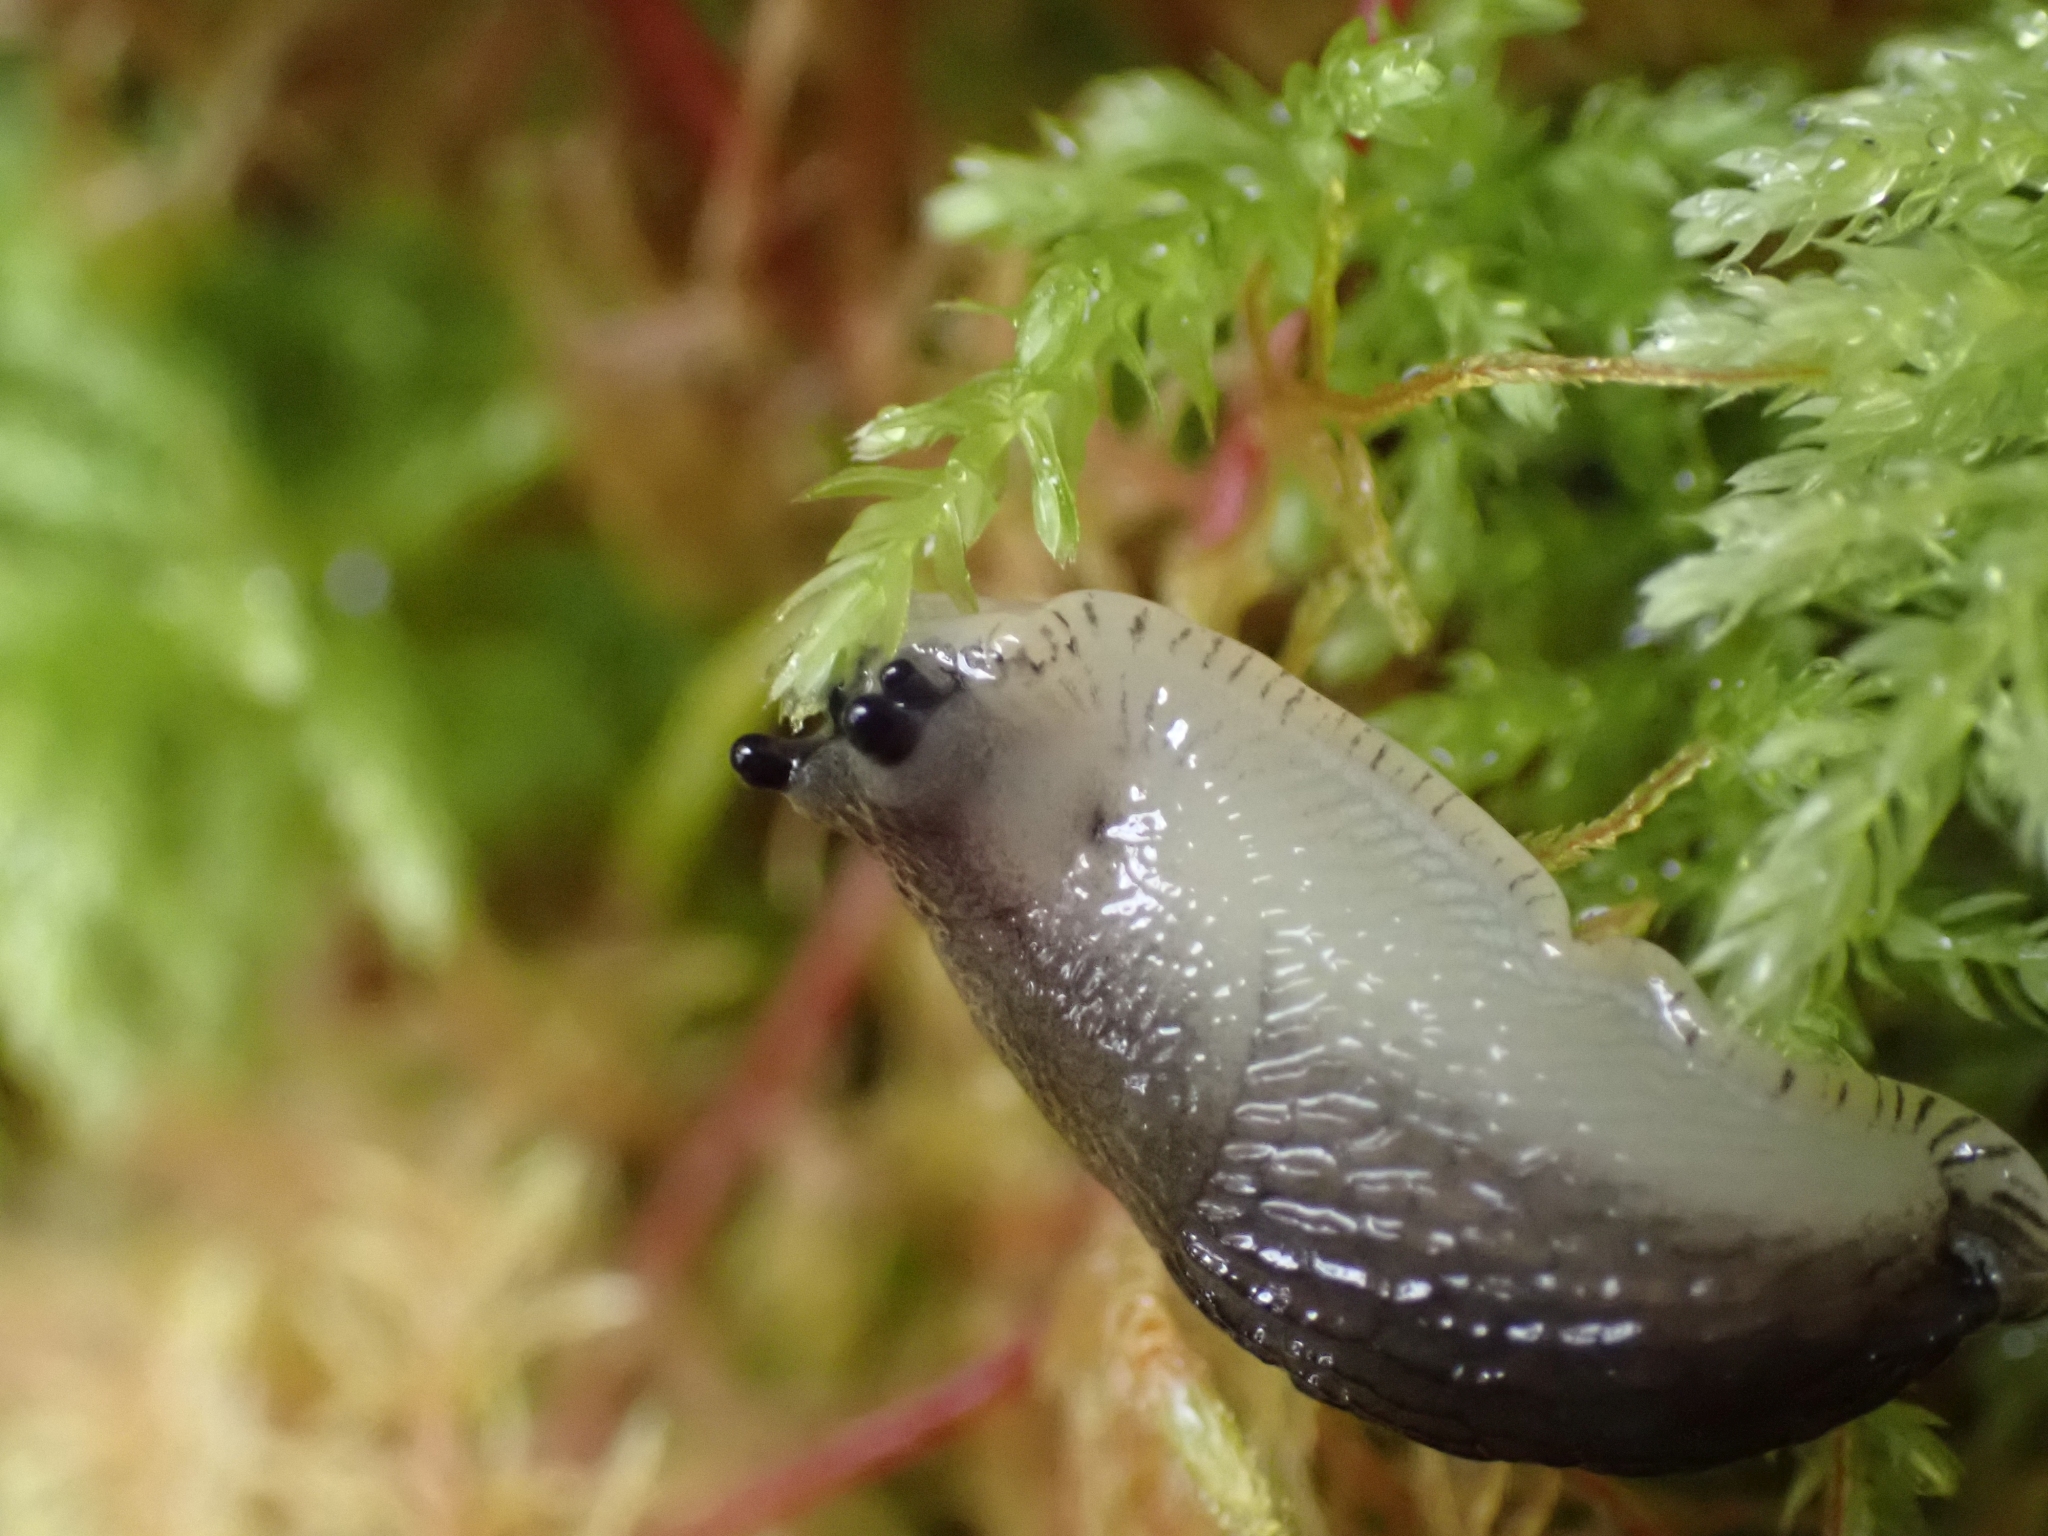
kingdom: Animalia
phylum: Mollusca
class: Gastropoda
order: Stylommatophora
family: Arionidae
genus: Arion
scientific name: Arion
